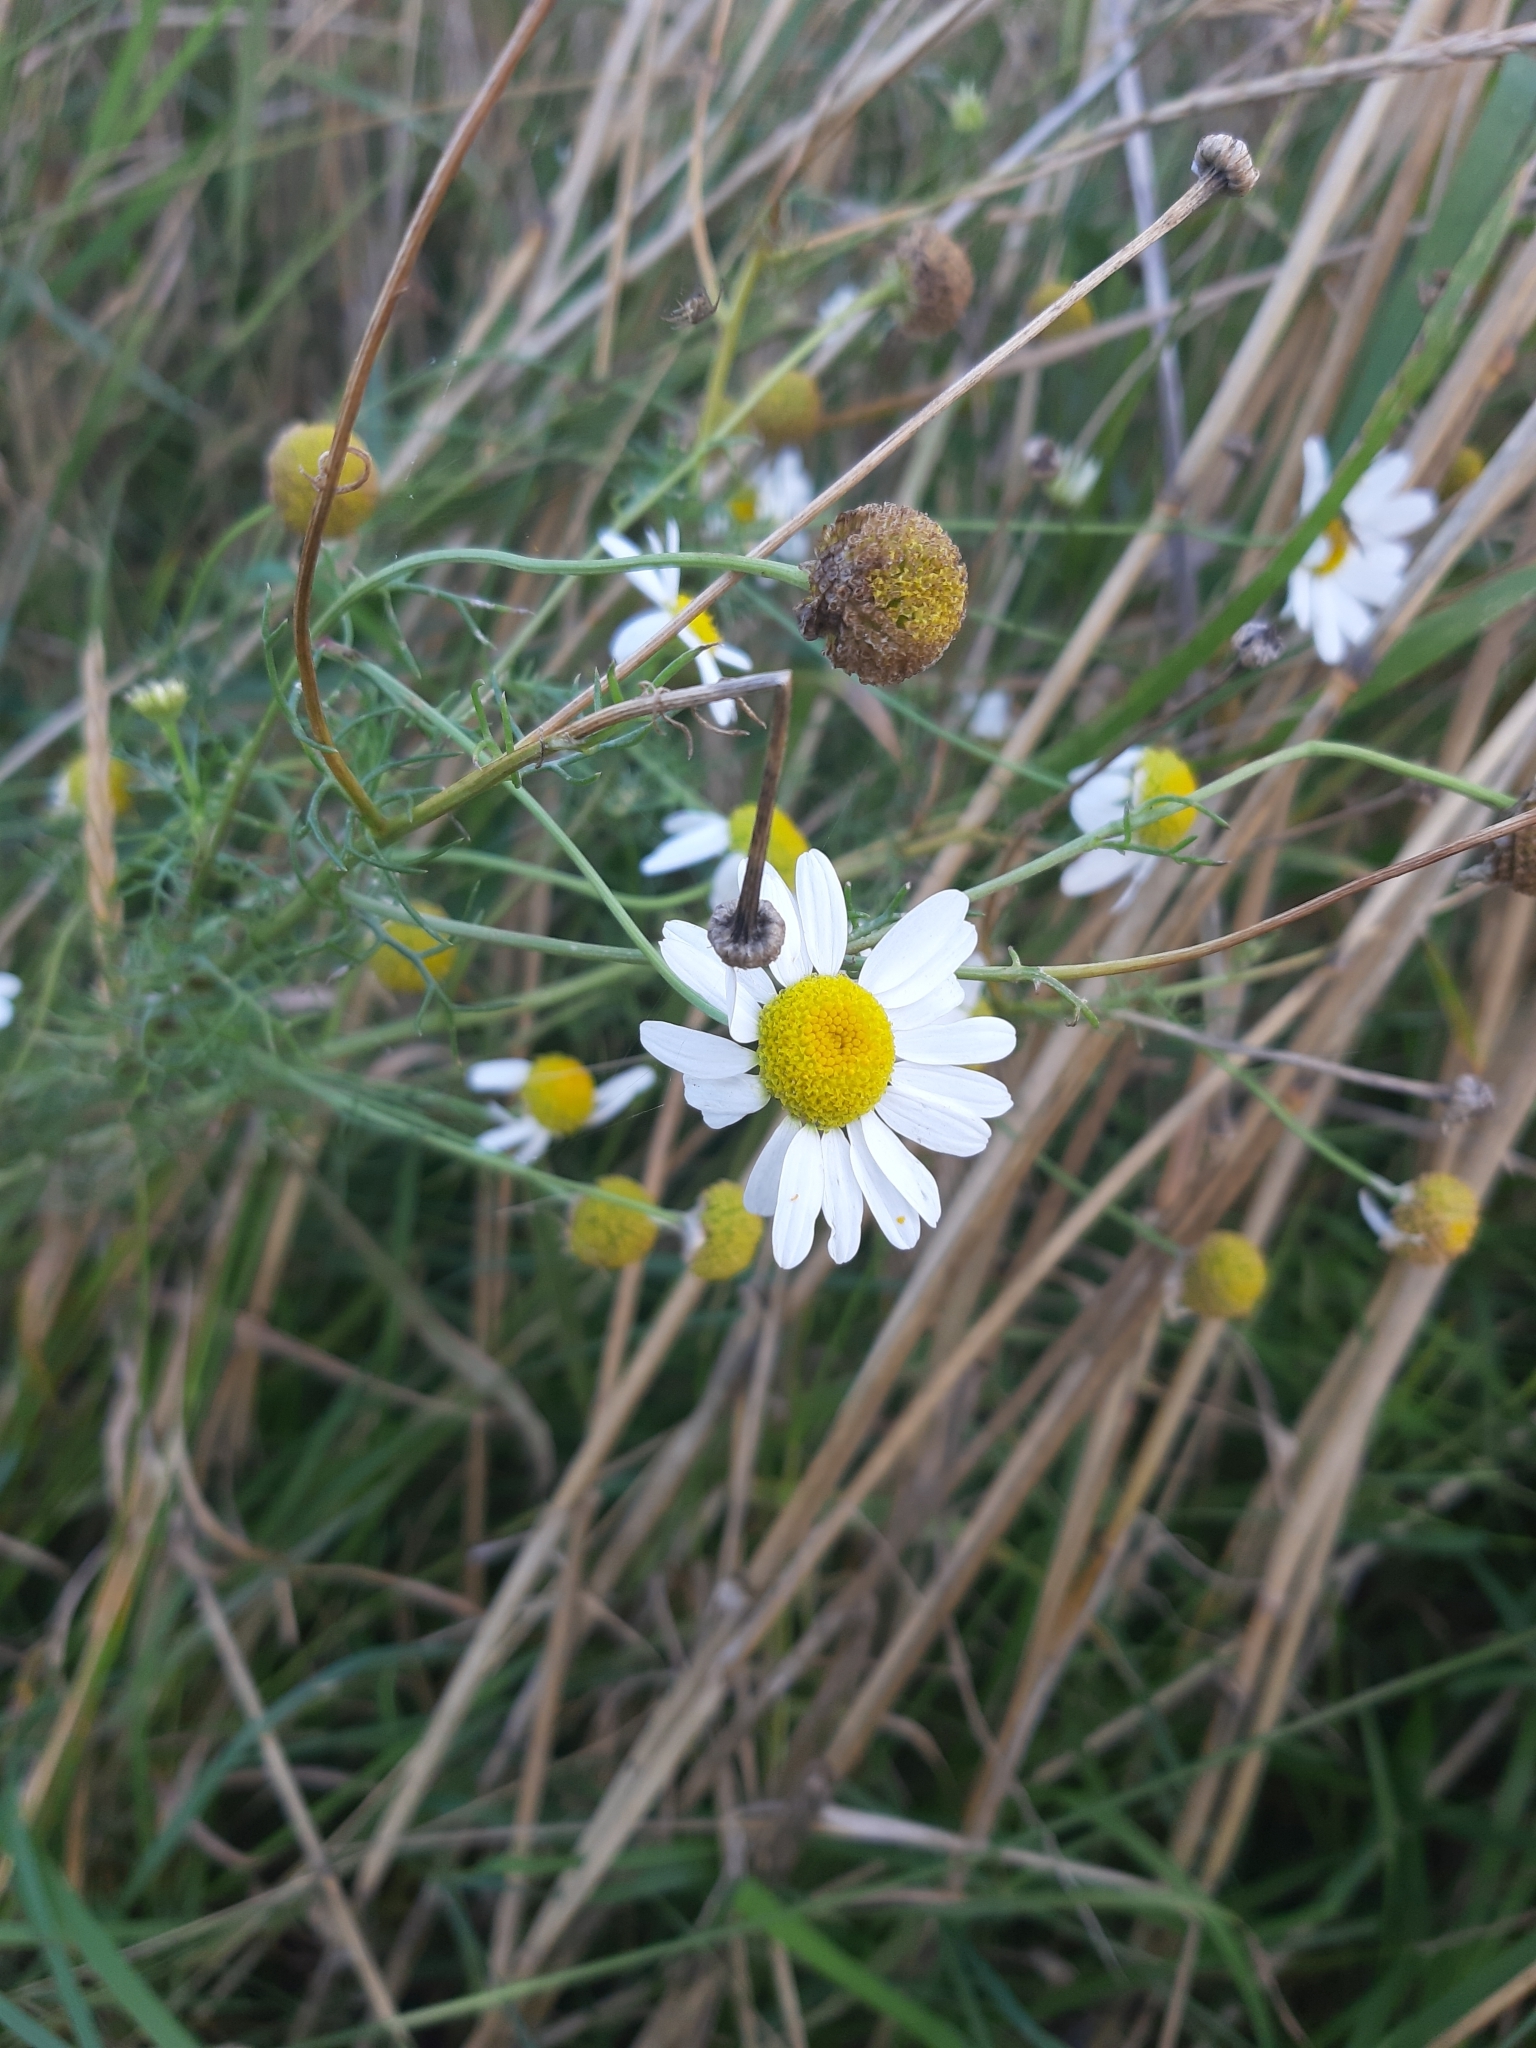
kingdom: Plantae
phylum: Tracheophyta
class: Magnoliopsida
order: Asterales
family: Asteraceae
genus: Tripleurospermum
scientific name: Tripleurospermum inodorum
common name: Scentless mayweed
